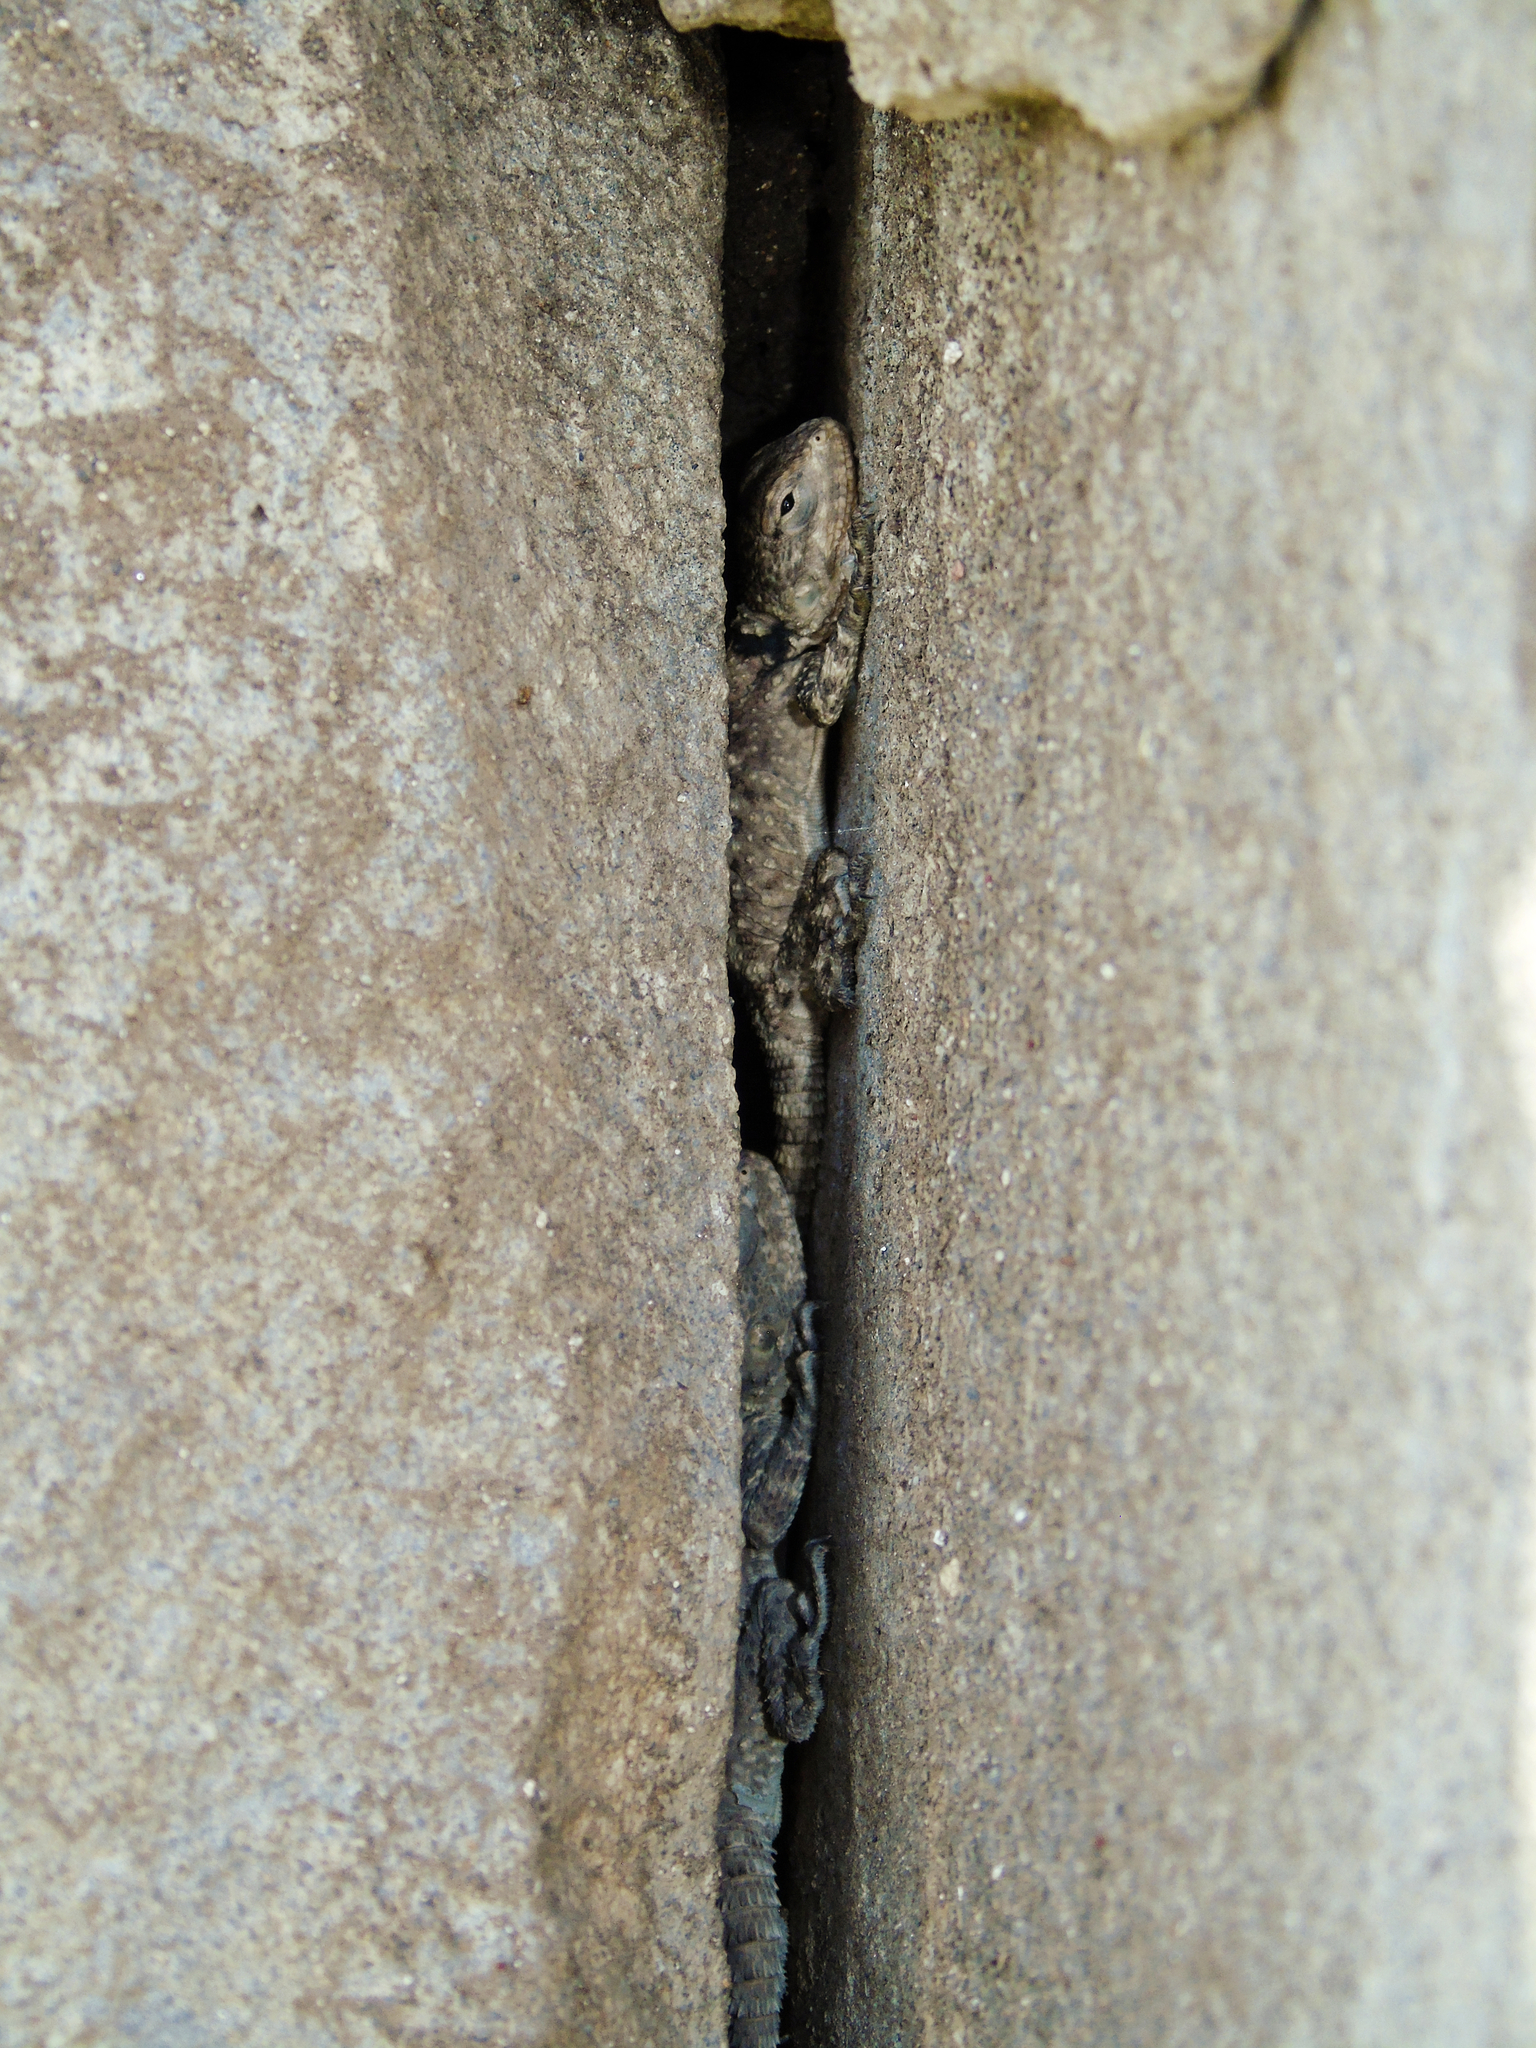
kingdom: Animalia
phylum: Chordata
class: Squamata
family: Agamidae
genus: Stellagama
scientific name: Stellagama stellio
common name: Starred agama
